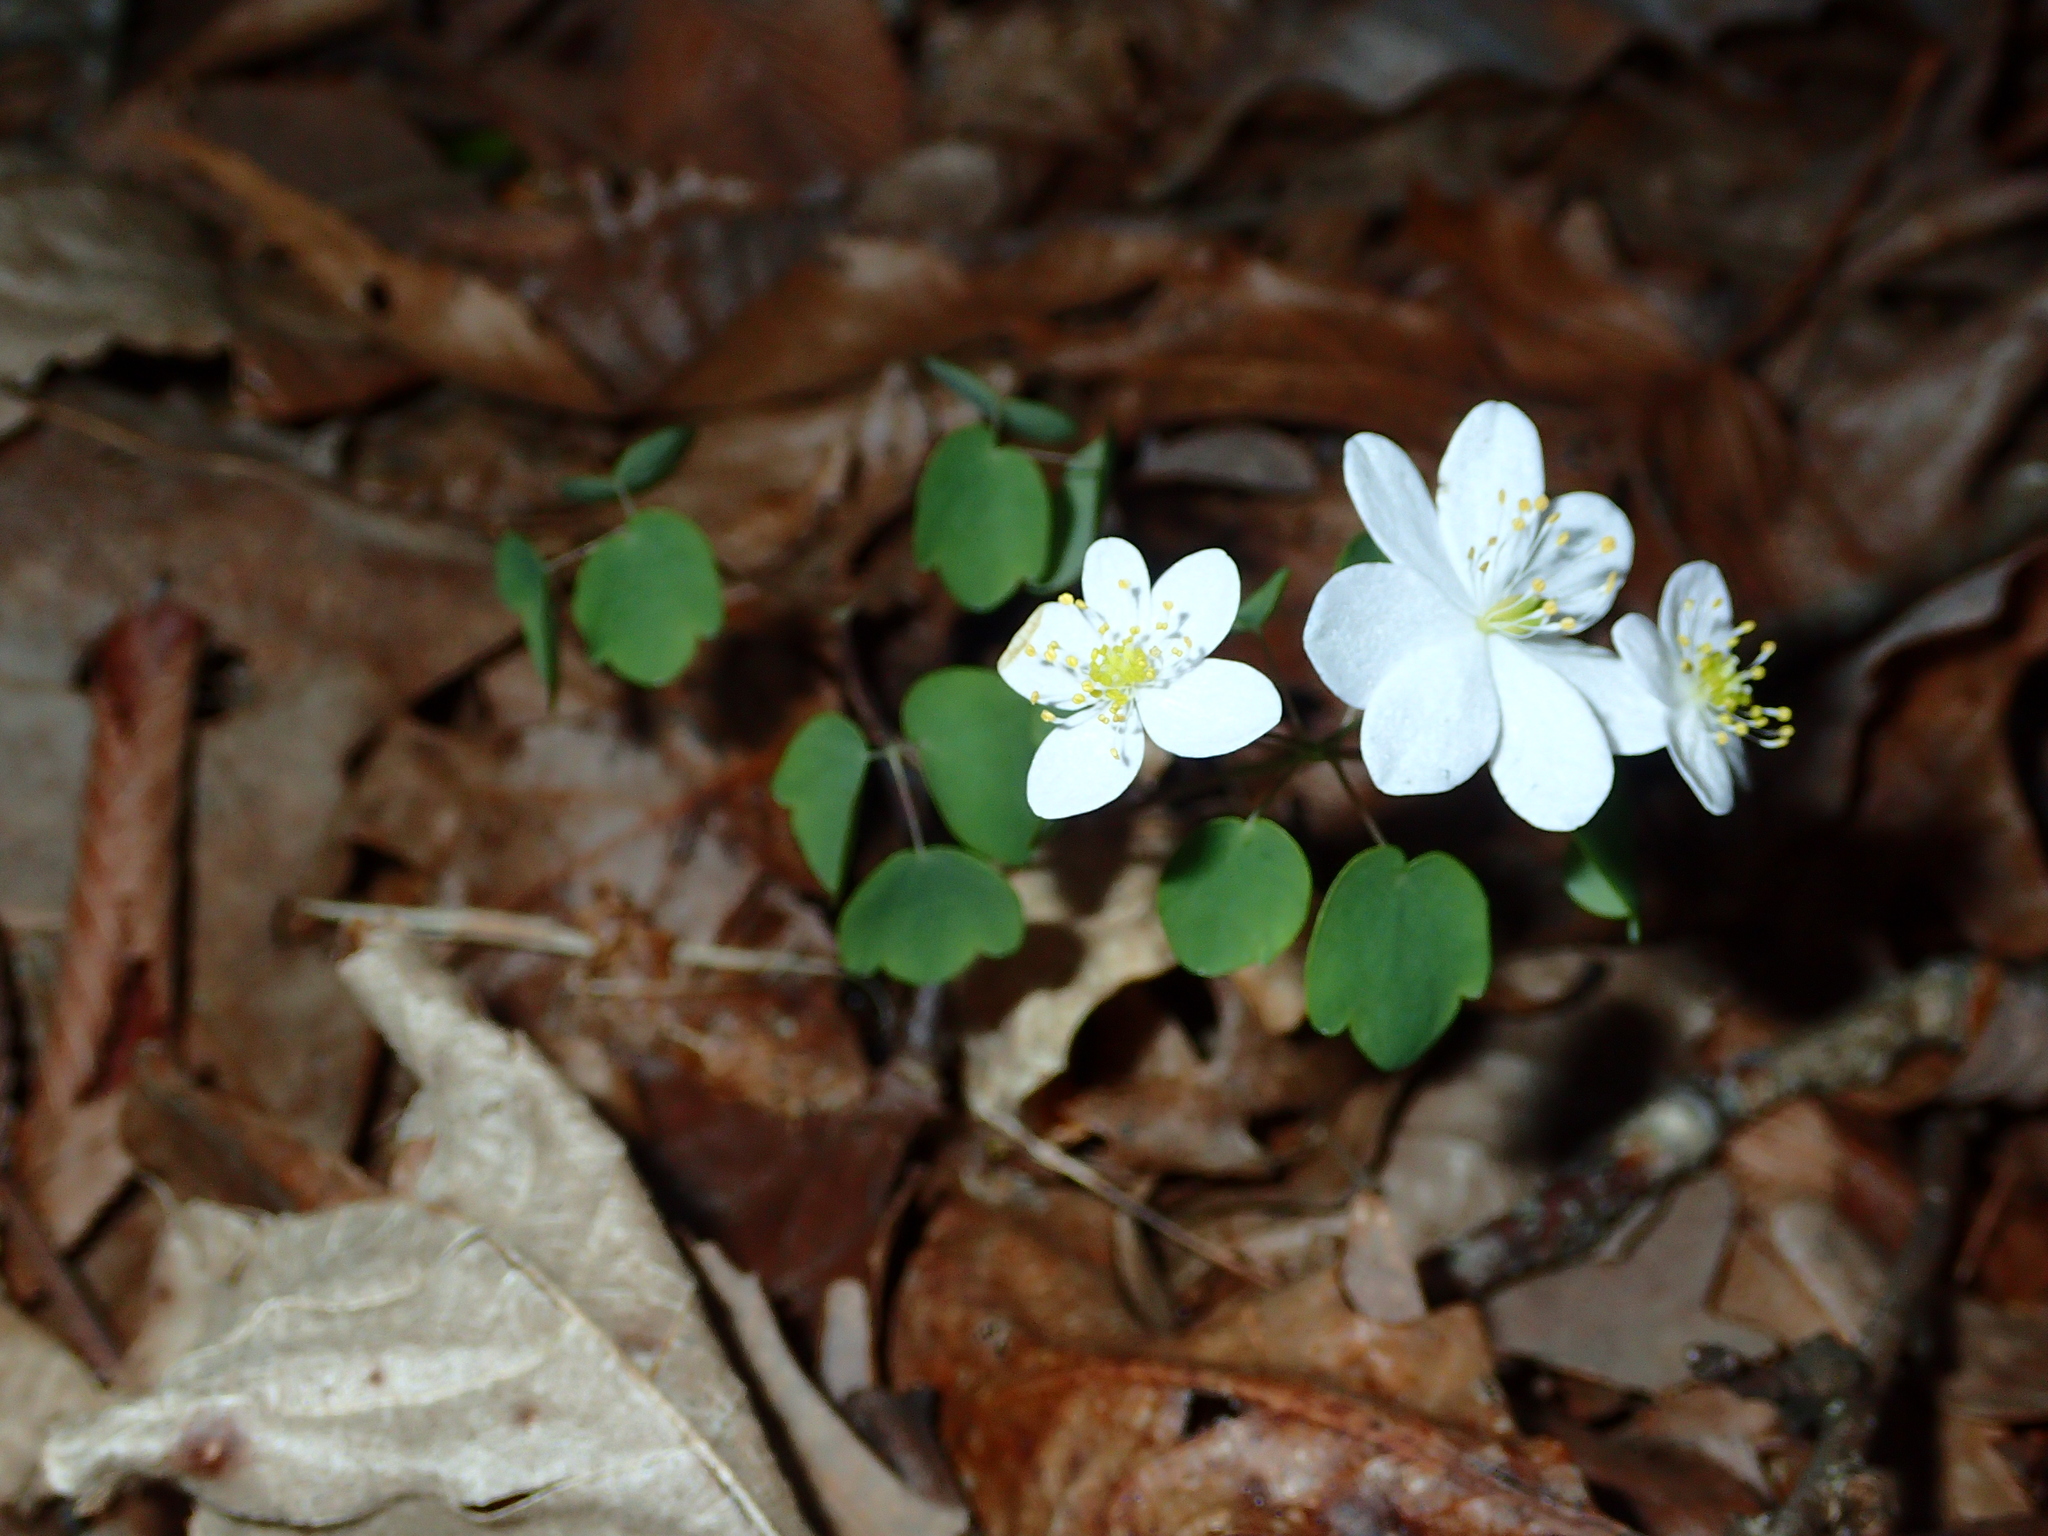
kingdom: Plantae
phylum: Tracheophyta
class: Magnoliopsida
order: Ranunculales
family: Ranunculaceae
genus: Thalictrum
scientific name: Thalictrum thalictroides
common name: Rue-anemone
